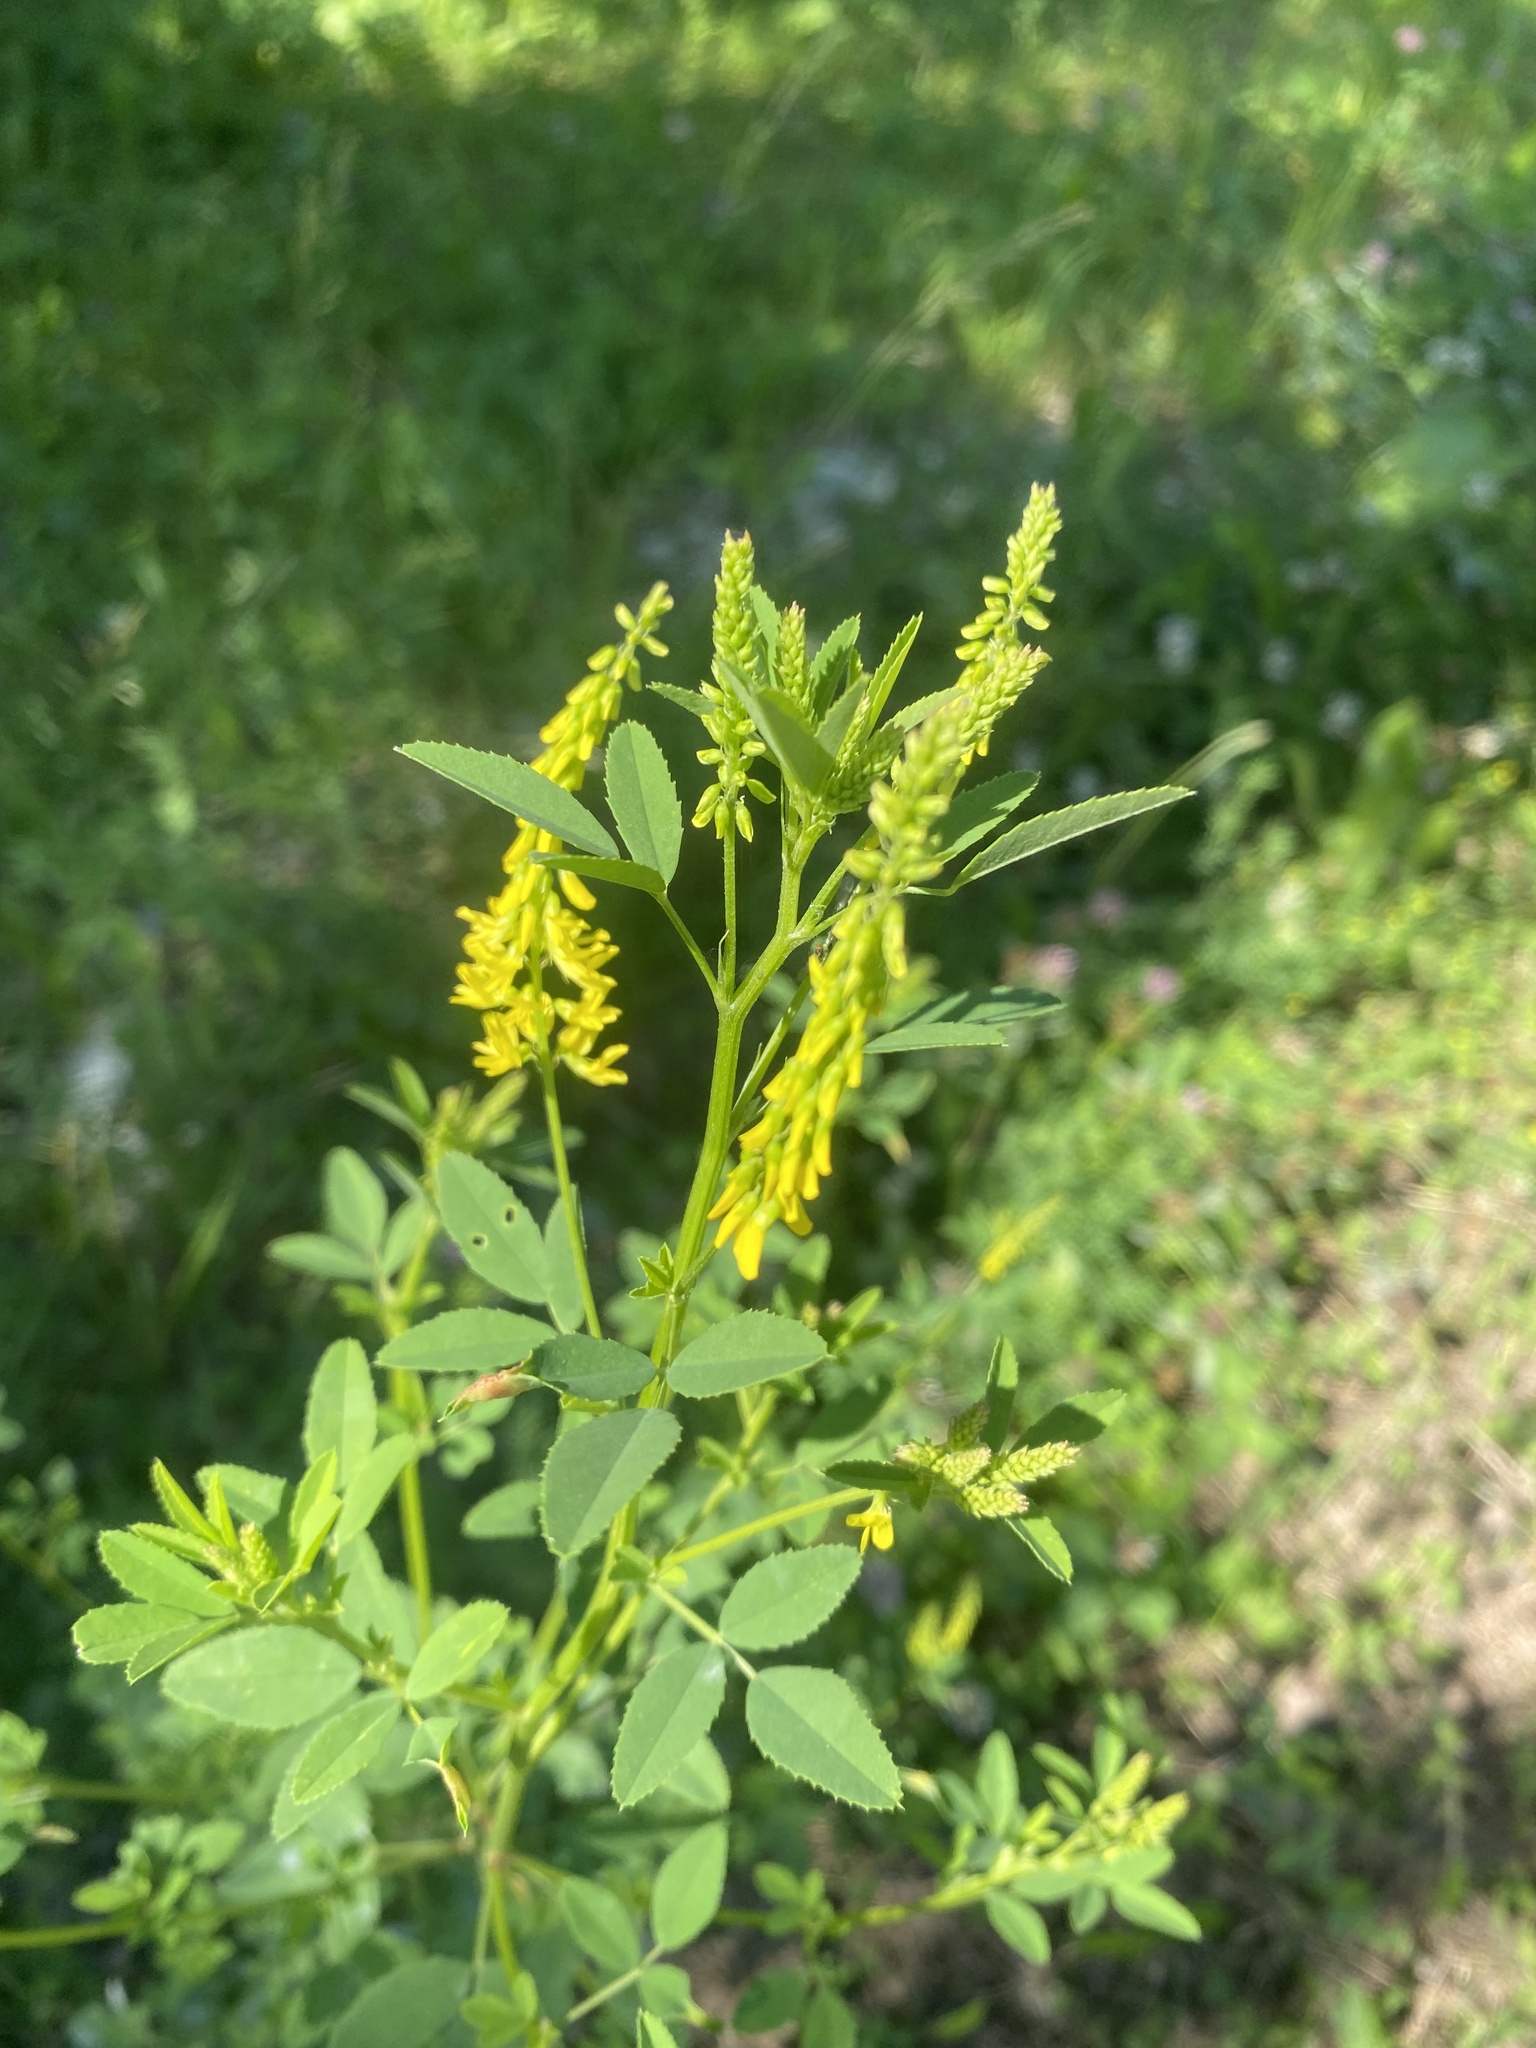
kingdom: Plantae
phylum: Tracheophyta
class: Magnoliopsida
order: Fabales
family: Fabaceae
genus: Melilotus
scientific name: Melilotus officinalis
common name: Sweetclover
